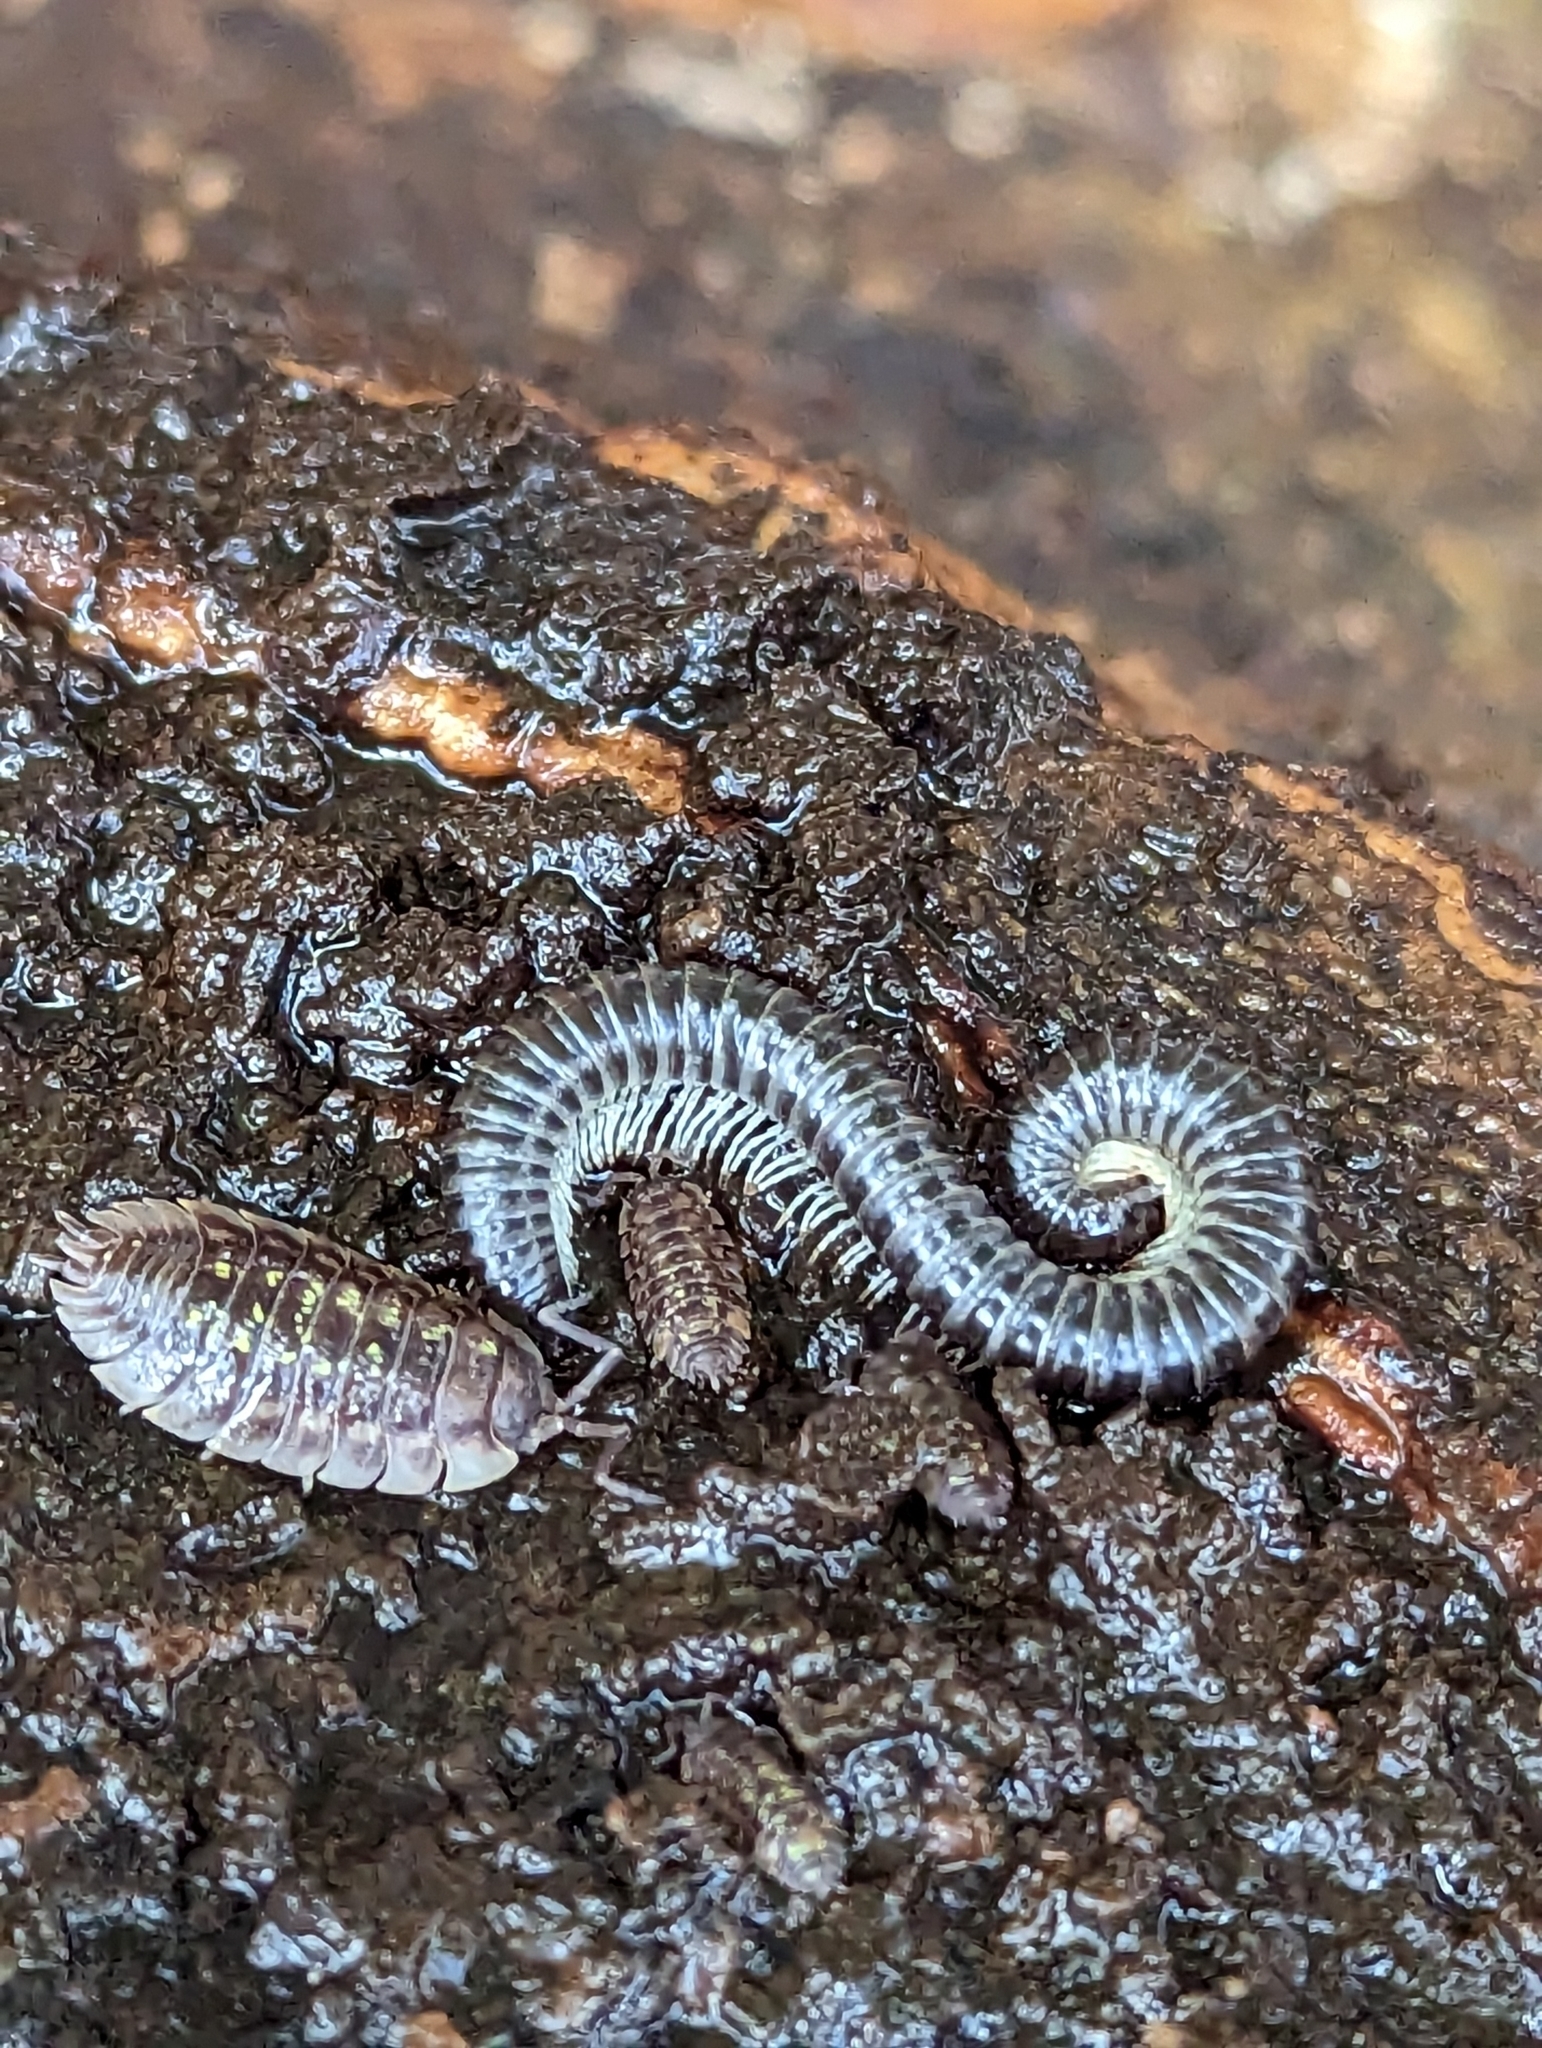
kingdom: Animalia
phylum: Arthropoda
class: Diplopoda
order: Julida
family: Julidae
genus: Tachypodoiulus
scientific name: Tachypodoiulus niger
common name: White-legged snake millipede
